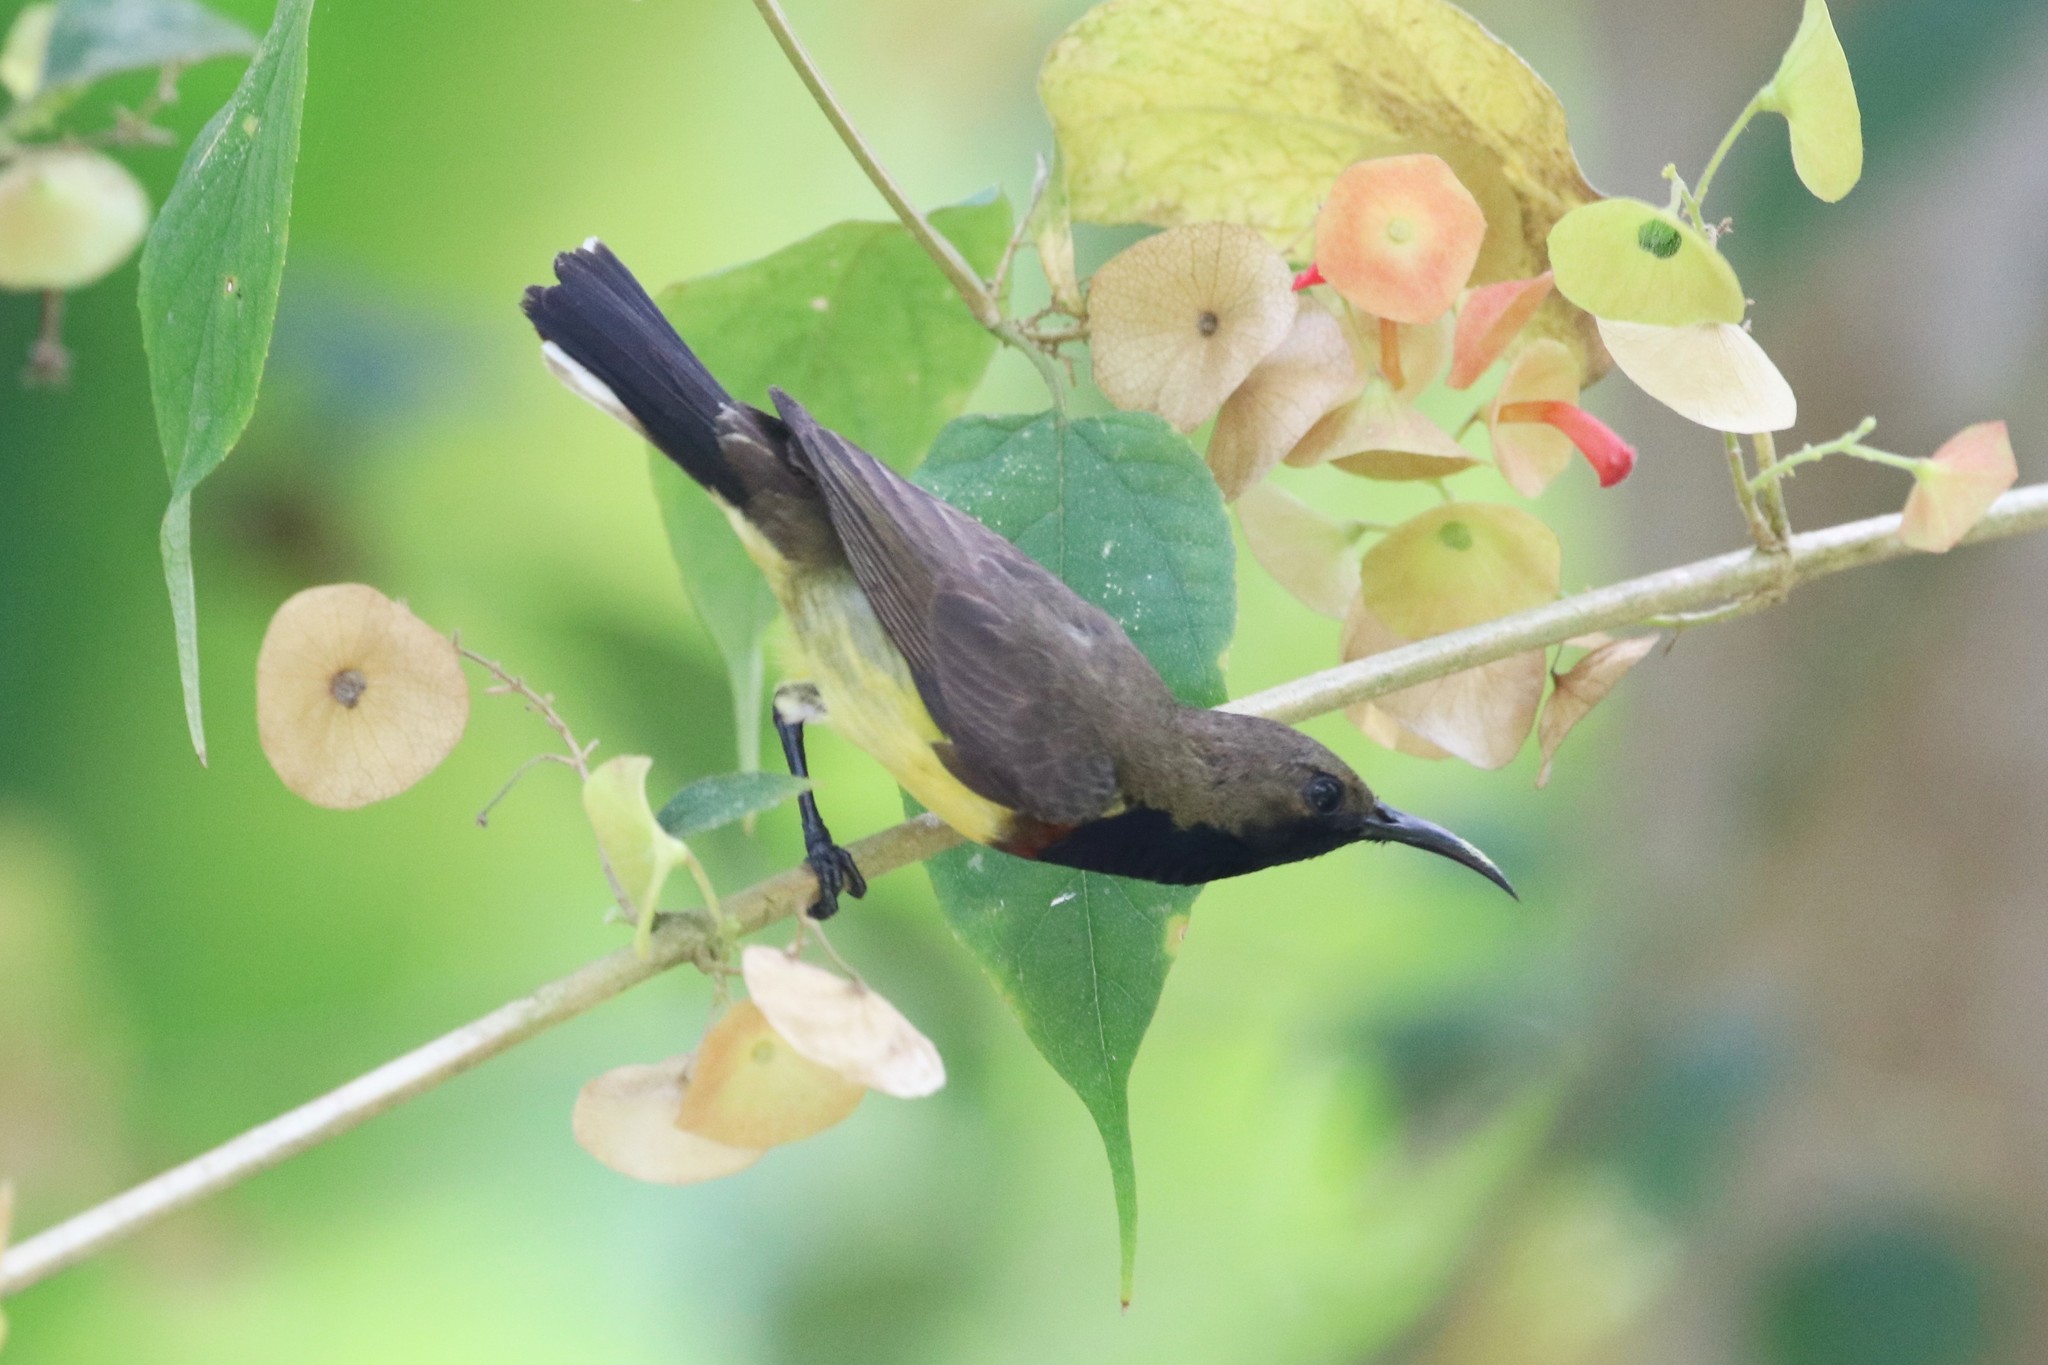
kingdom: Animalia
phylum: Chordata
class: Aves
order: Passeriformes
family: Nectariniidae
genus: Cinnyris
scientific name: Cinnyris
